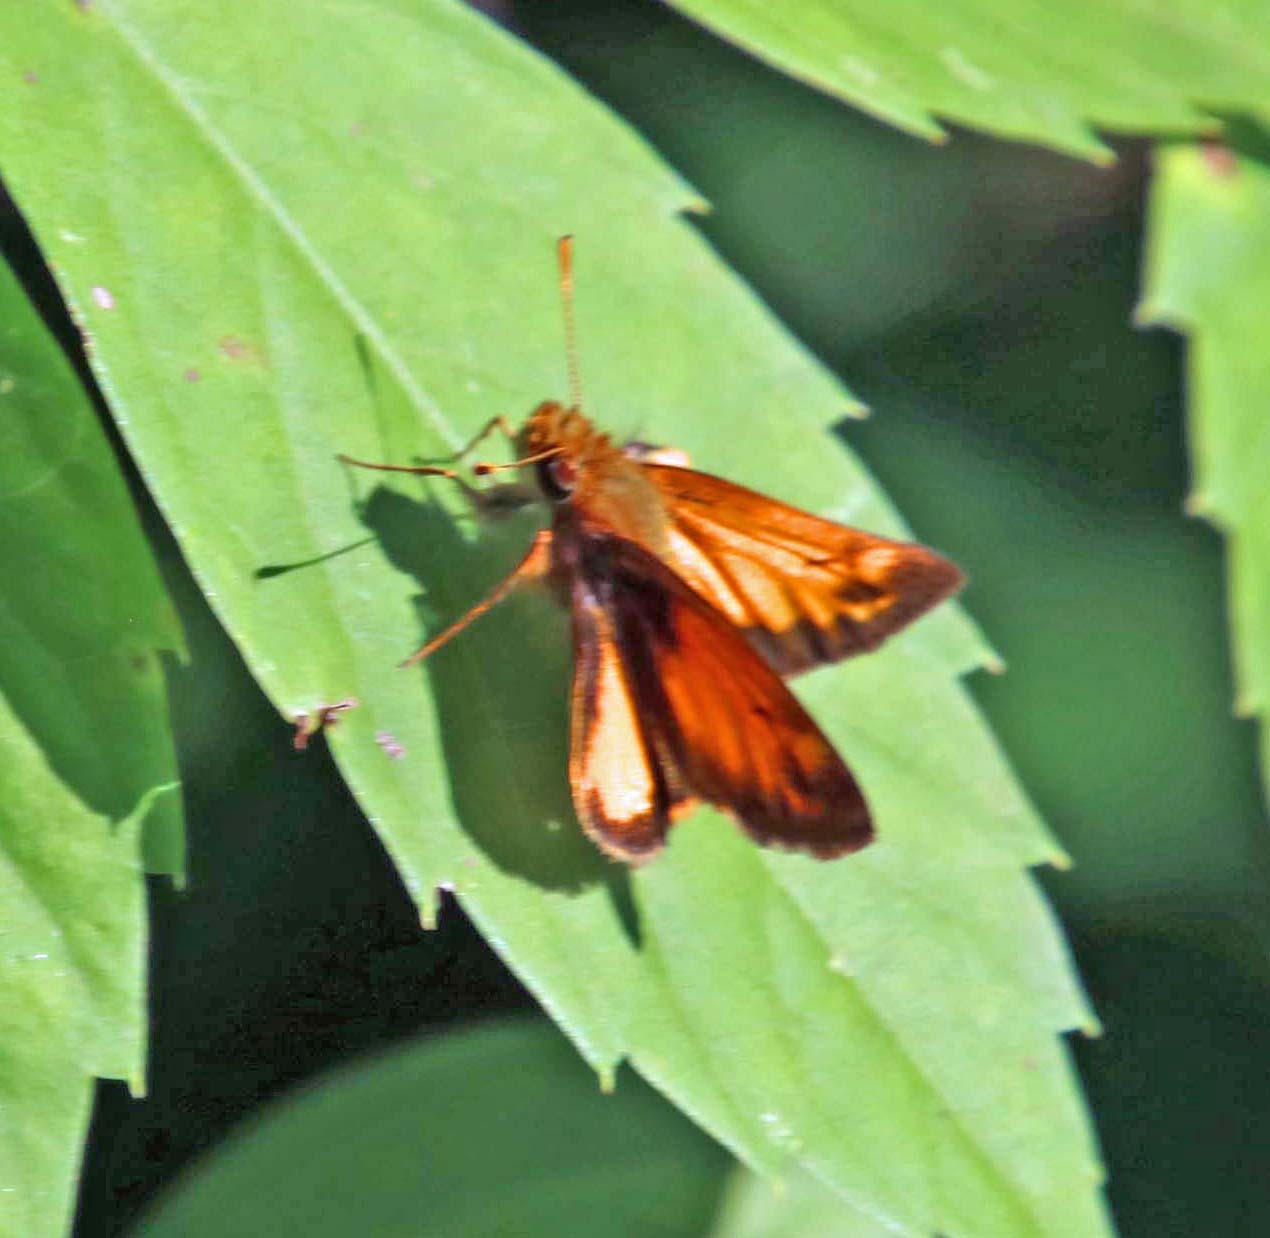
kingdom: Animalia
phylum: Arthropoda
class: Insecta
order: Lepidoptera
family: Hesperiidae
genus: Lon
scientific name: Lon zabulon
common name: Zabulon skipper
